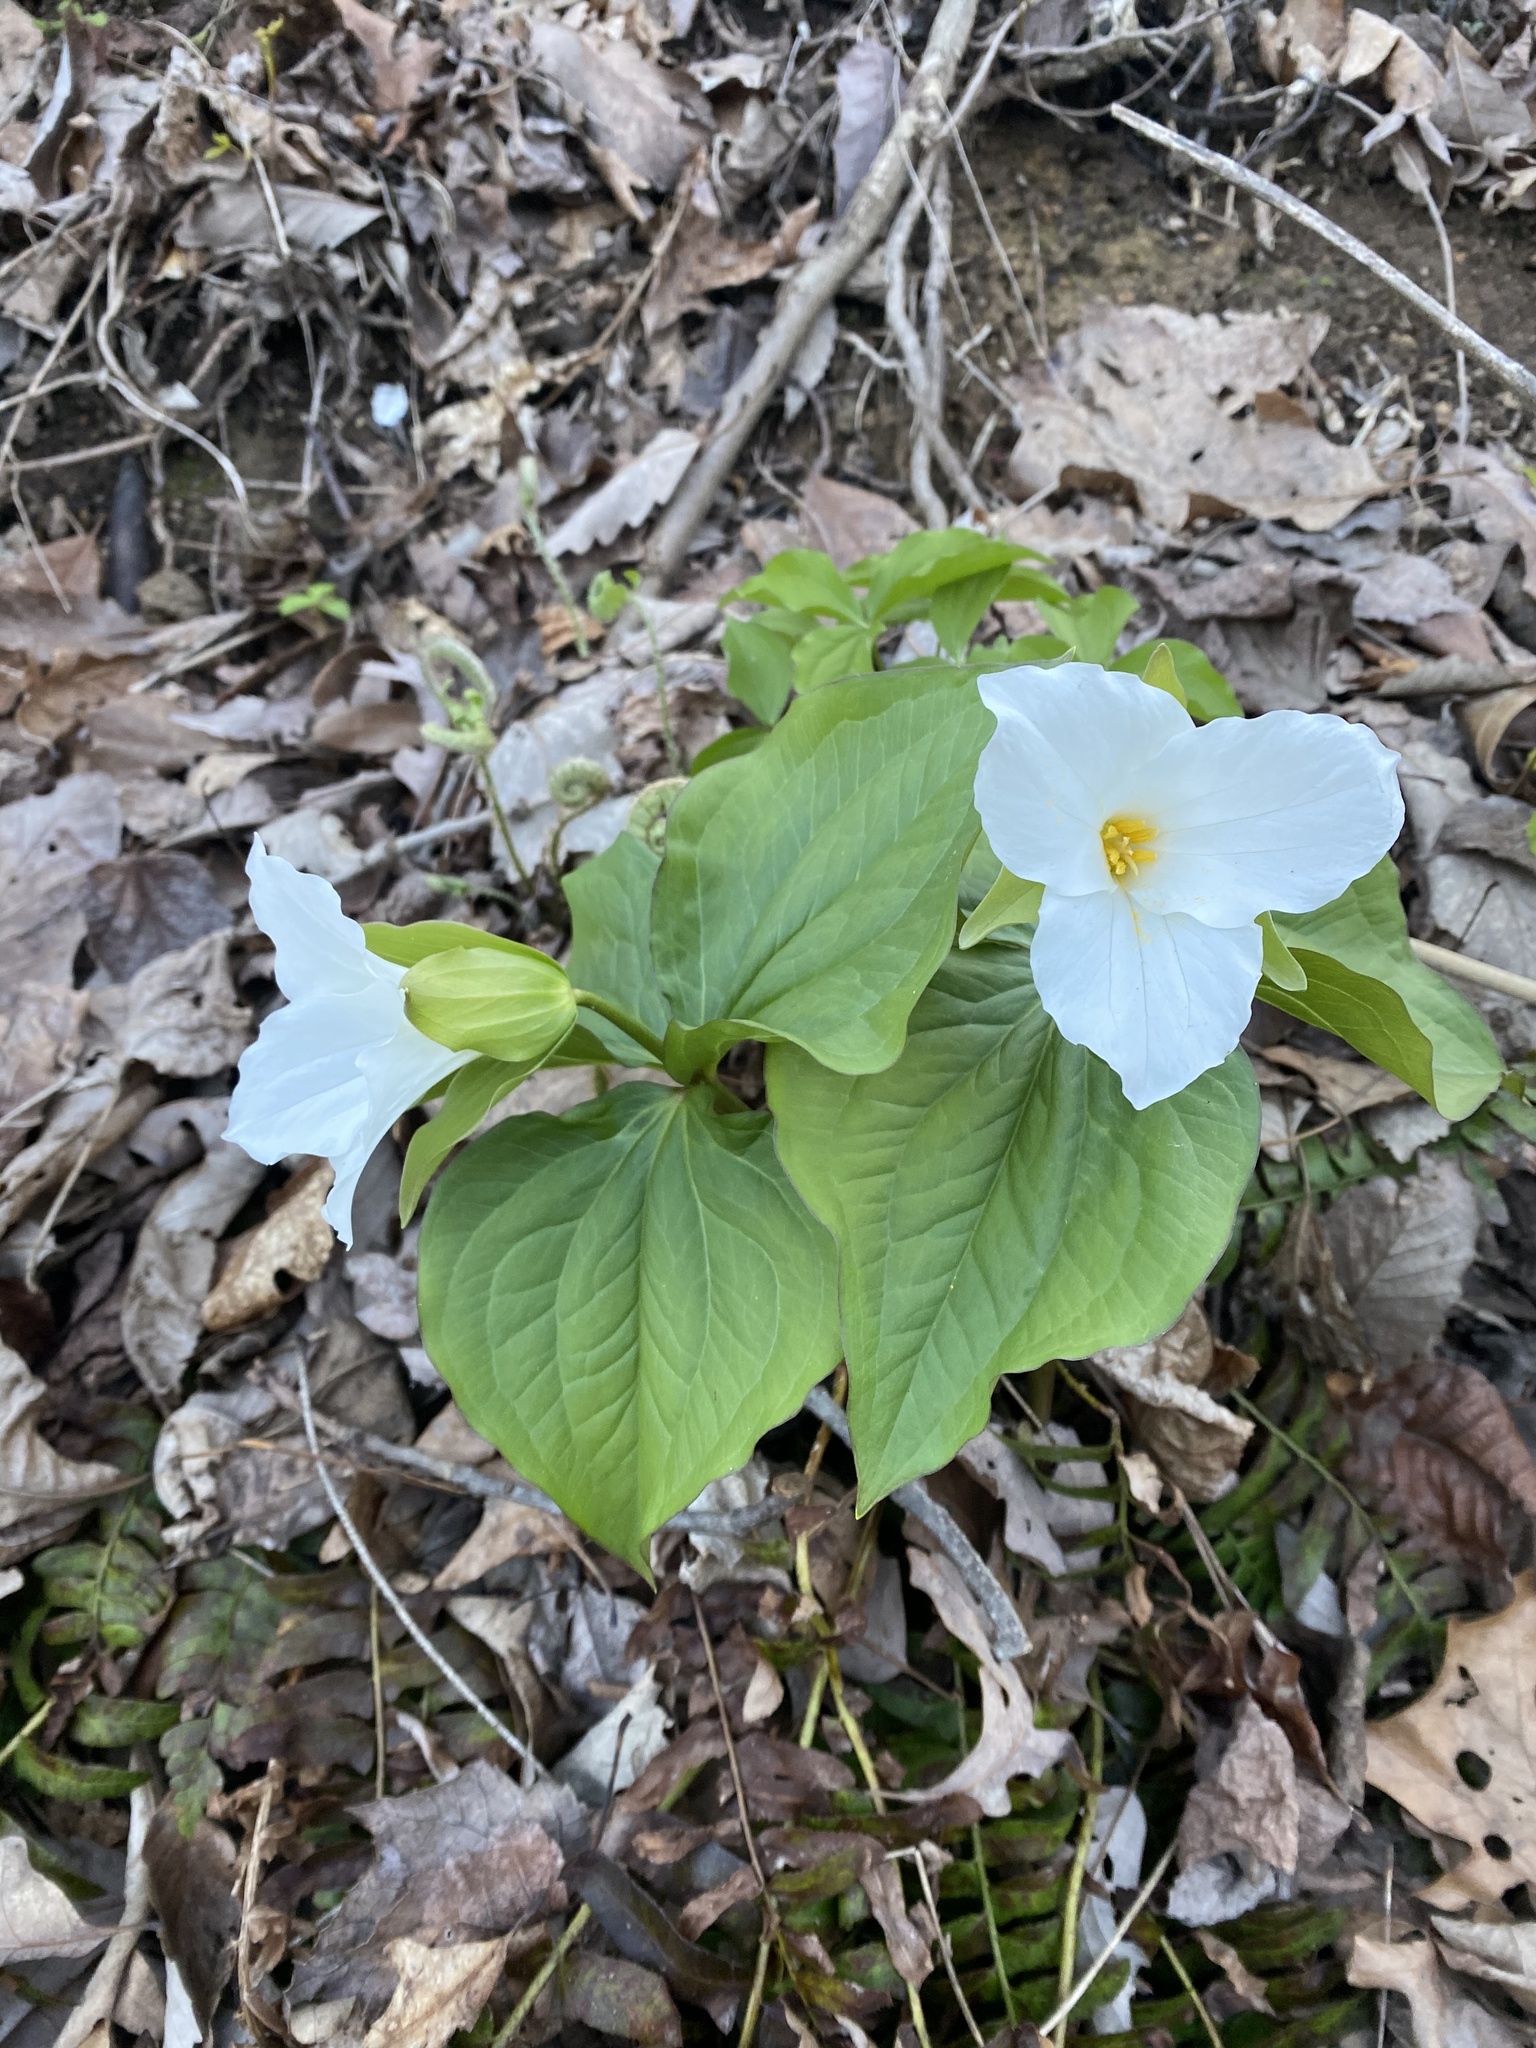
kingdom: Plantae
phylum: Tracheophyta
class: Liliopsida
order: Liliales
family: Melanthiaceae
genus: Trillium
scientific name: Trillium grandiflorum
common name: Great white trillium
